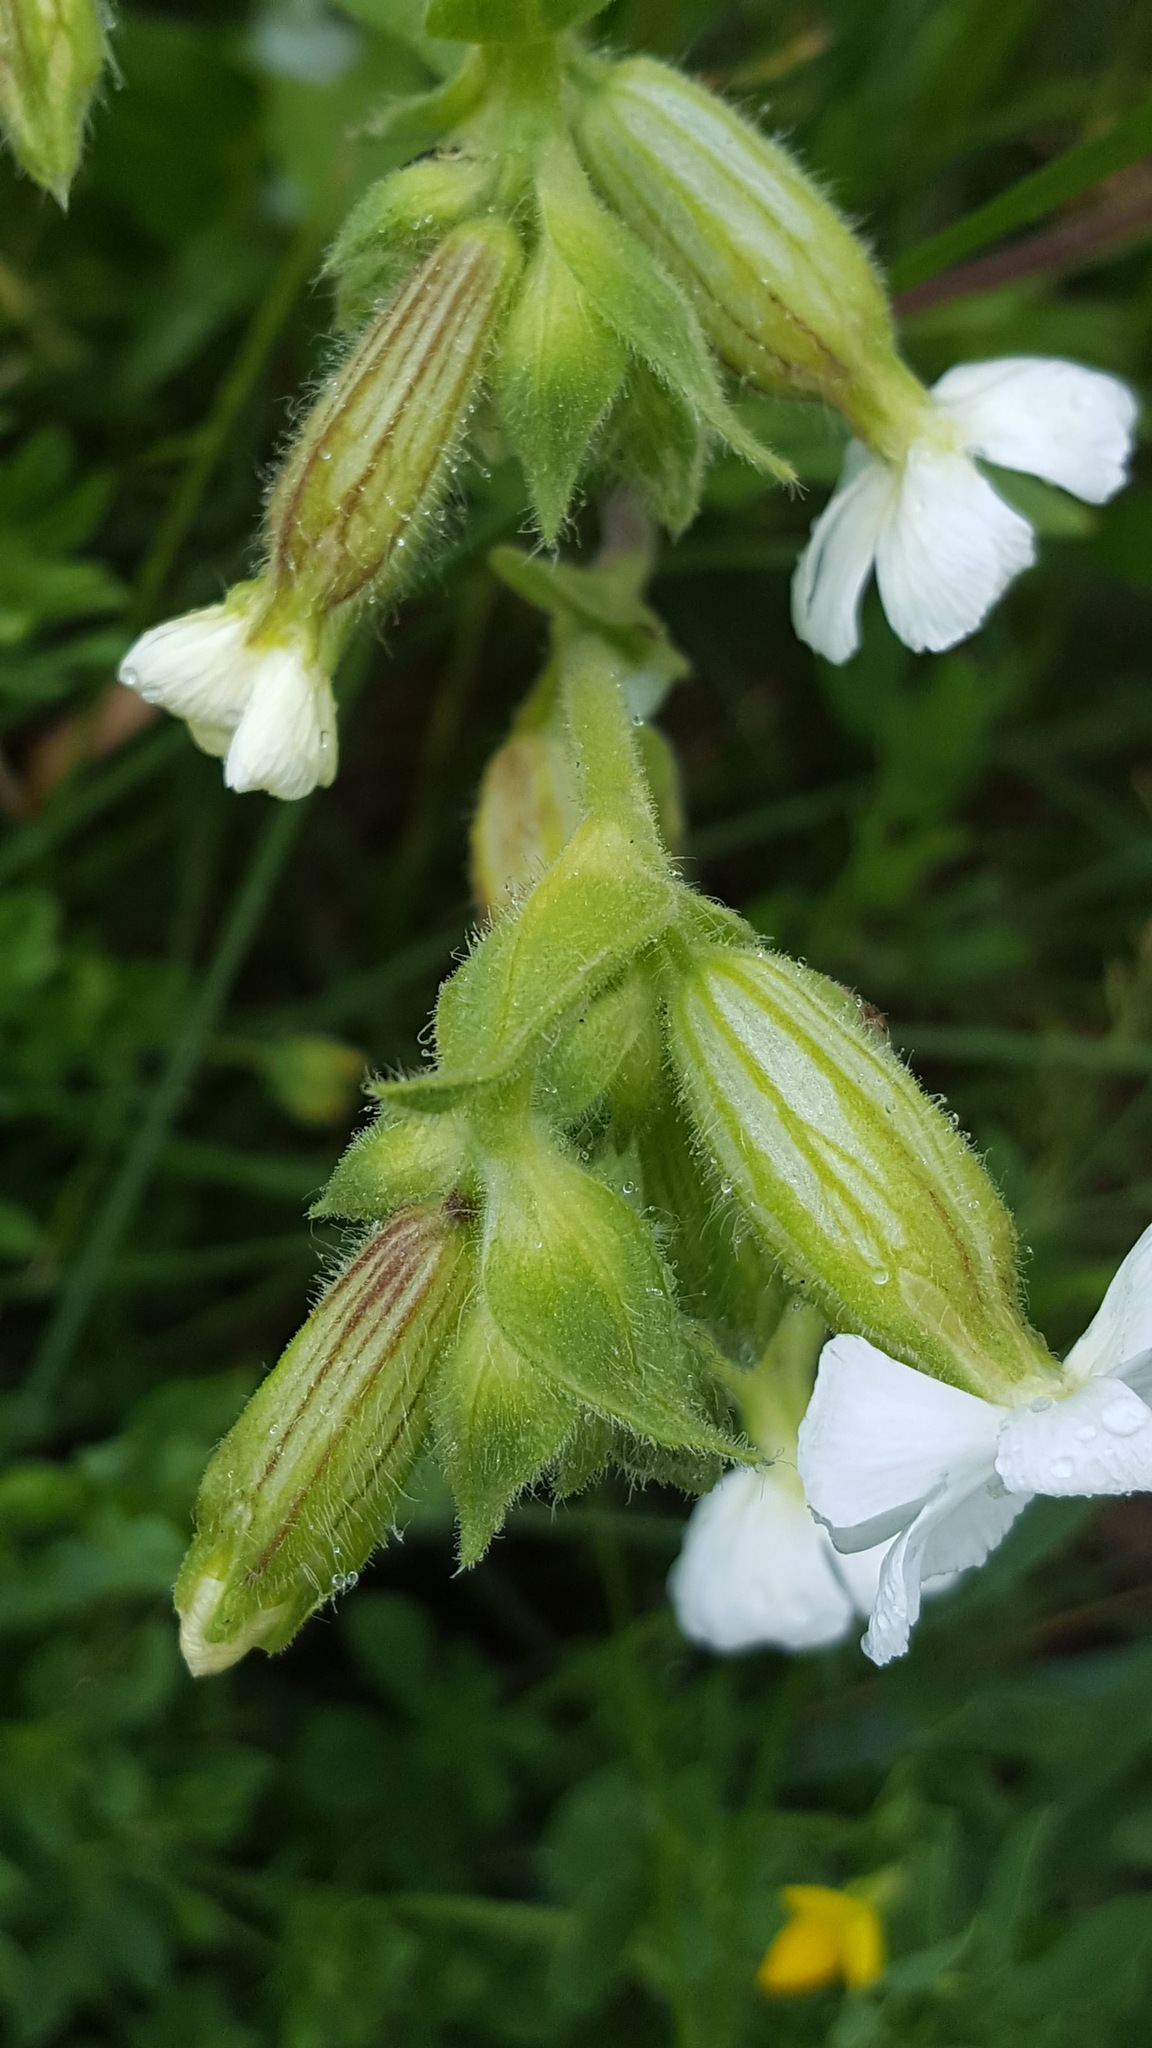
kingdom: Plantae
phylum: Tracheophyta
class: Magnoliopsida
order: Caryophyllales
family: Caryophyllaceae
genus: Silene
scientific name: Silene latifolia
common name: White campion
